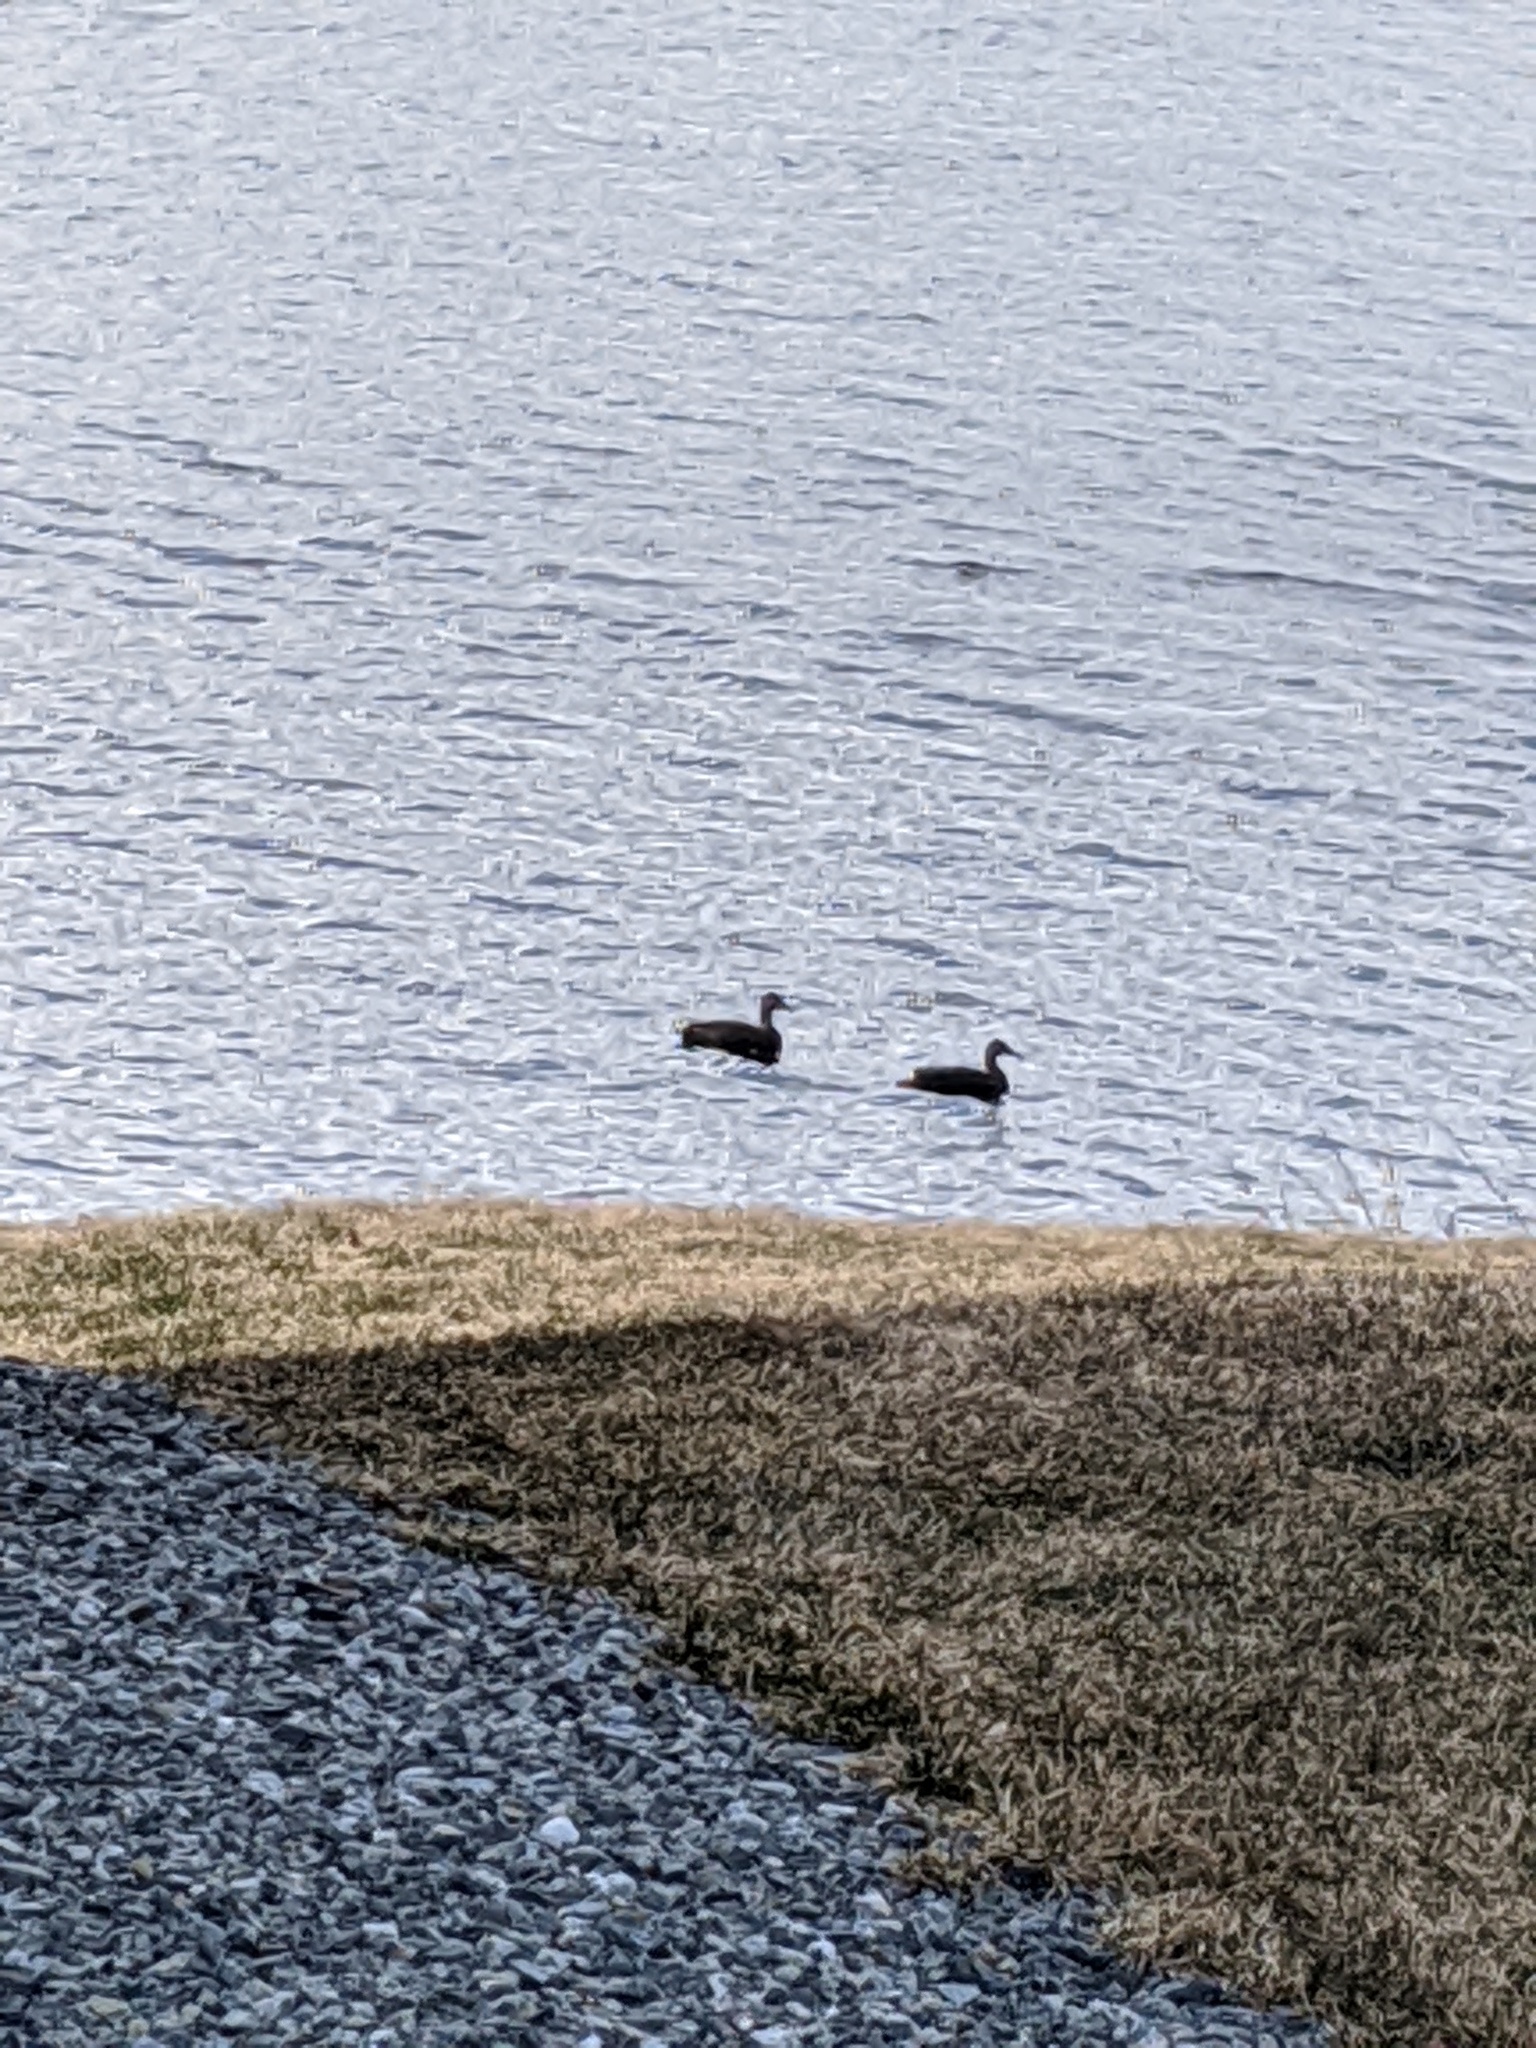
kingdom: Animalia
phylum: Chordata
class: Aves
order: Anseriformes
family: Anatidae
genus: Anas
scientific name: Anas rubripes
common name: American black duck
